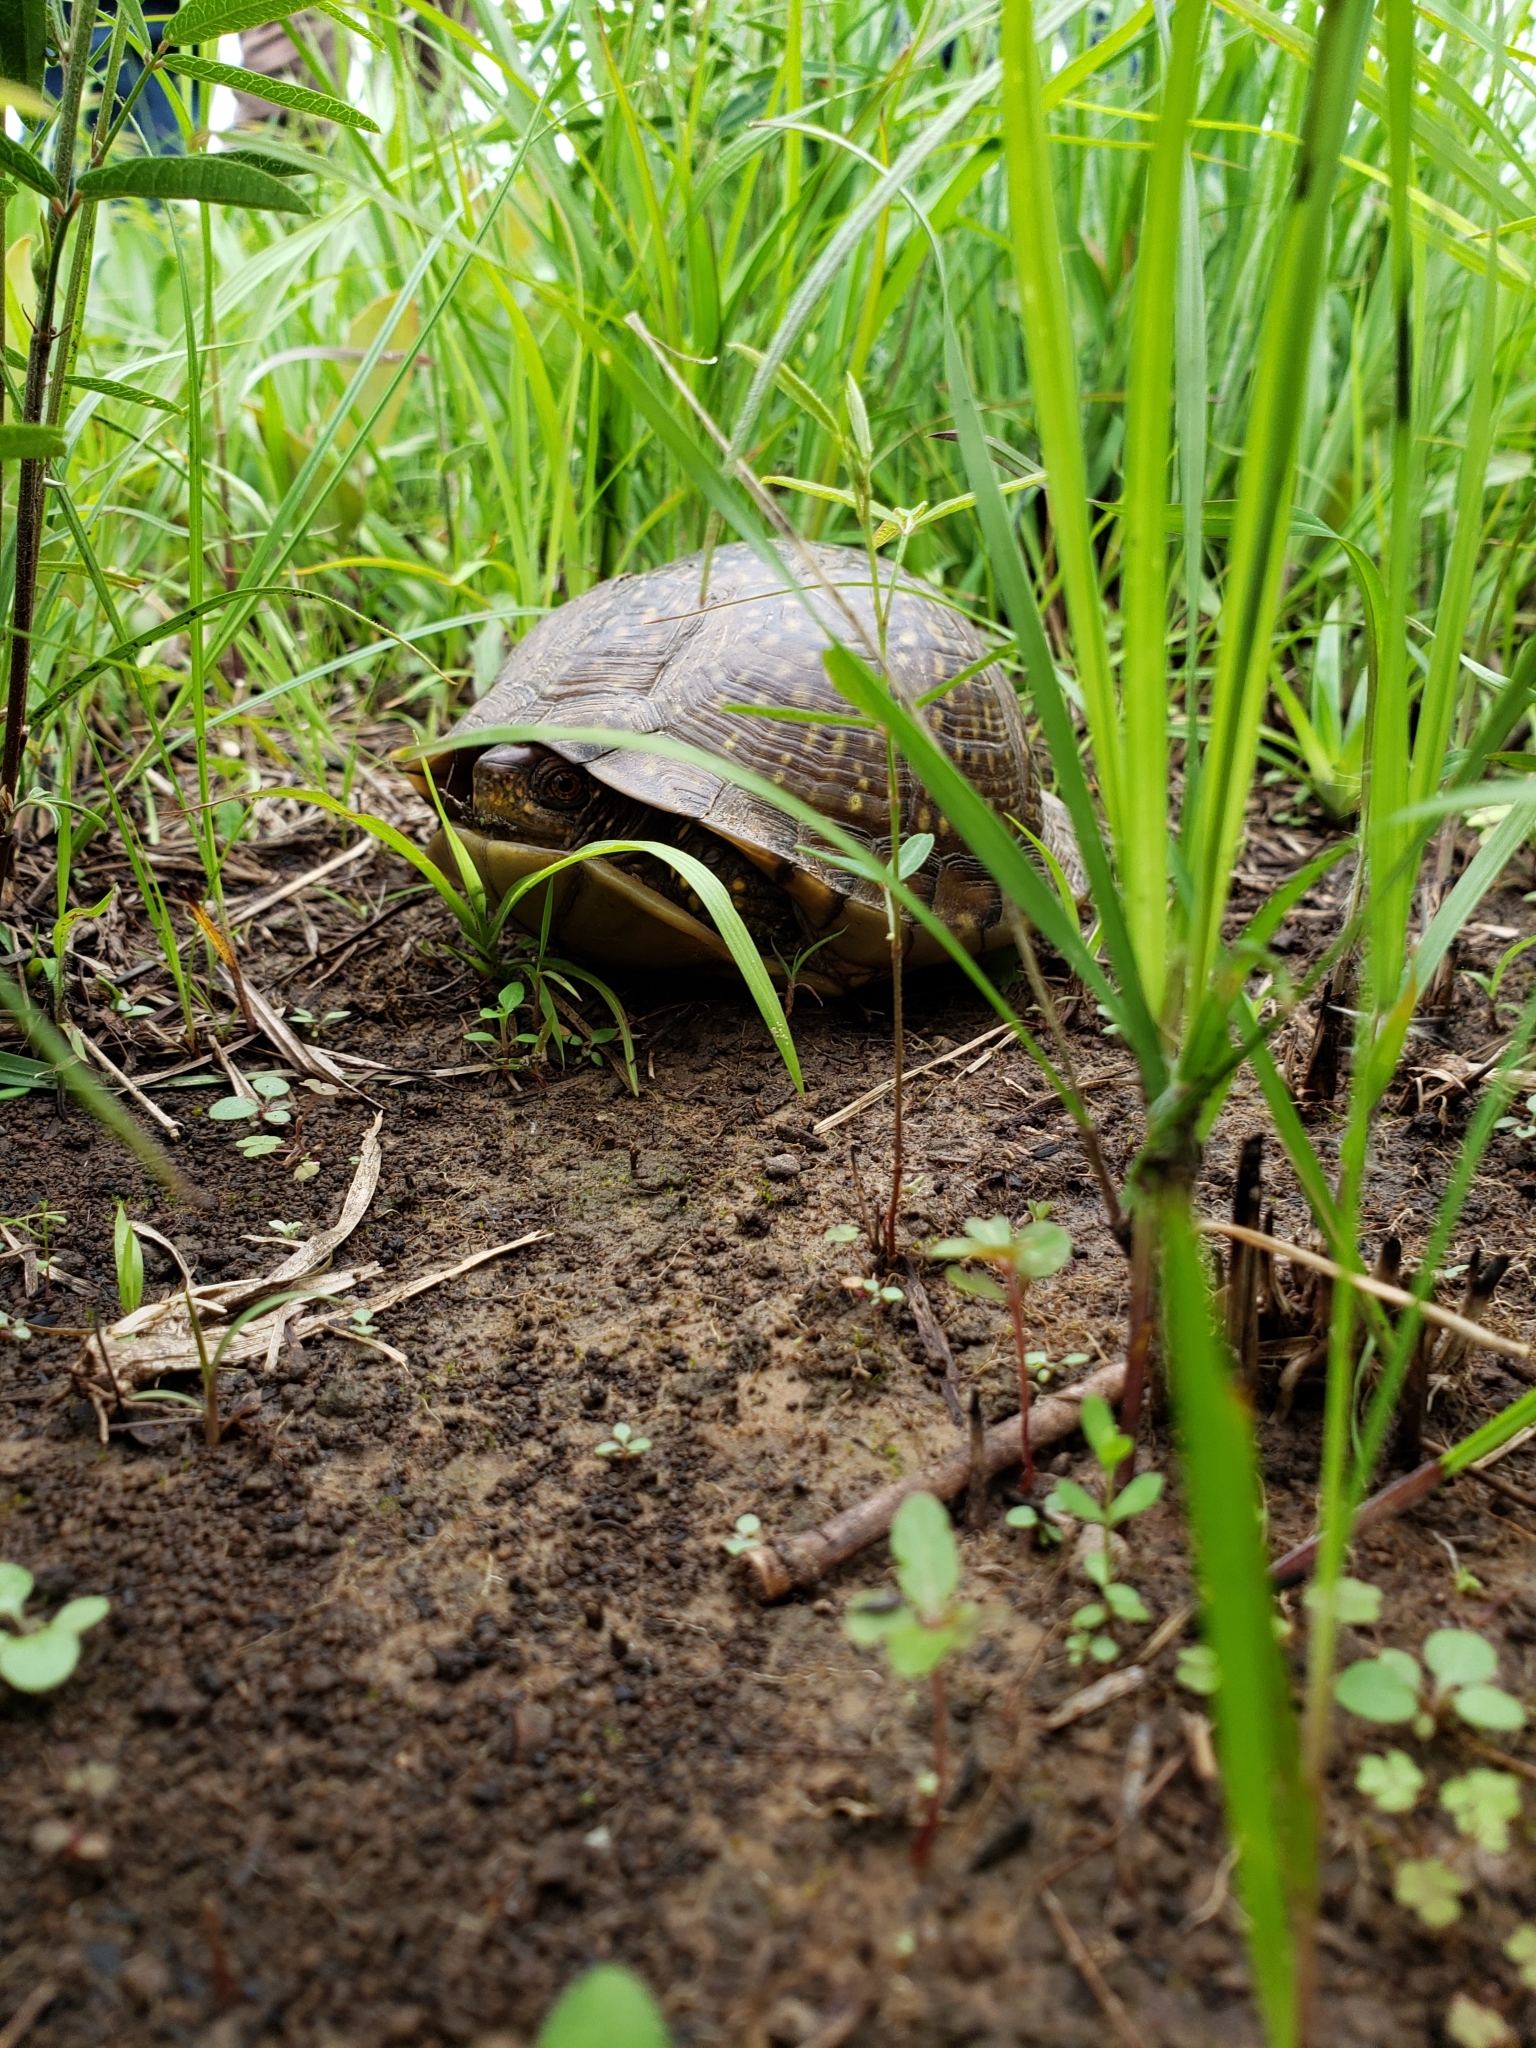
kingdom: Animalia
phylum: Chordata
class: Testudines
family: Emydidae
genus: Terrapene
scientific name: Terrapene carolina
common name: Common box turtle
